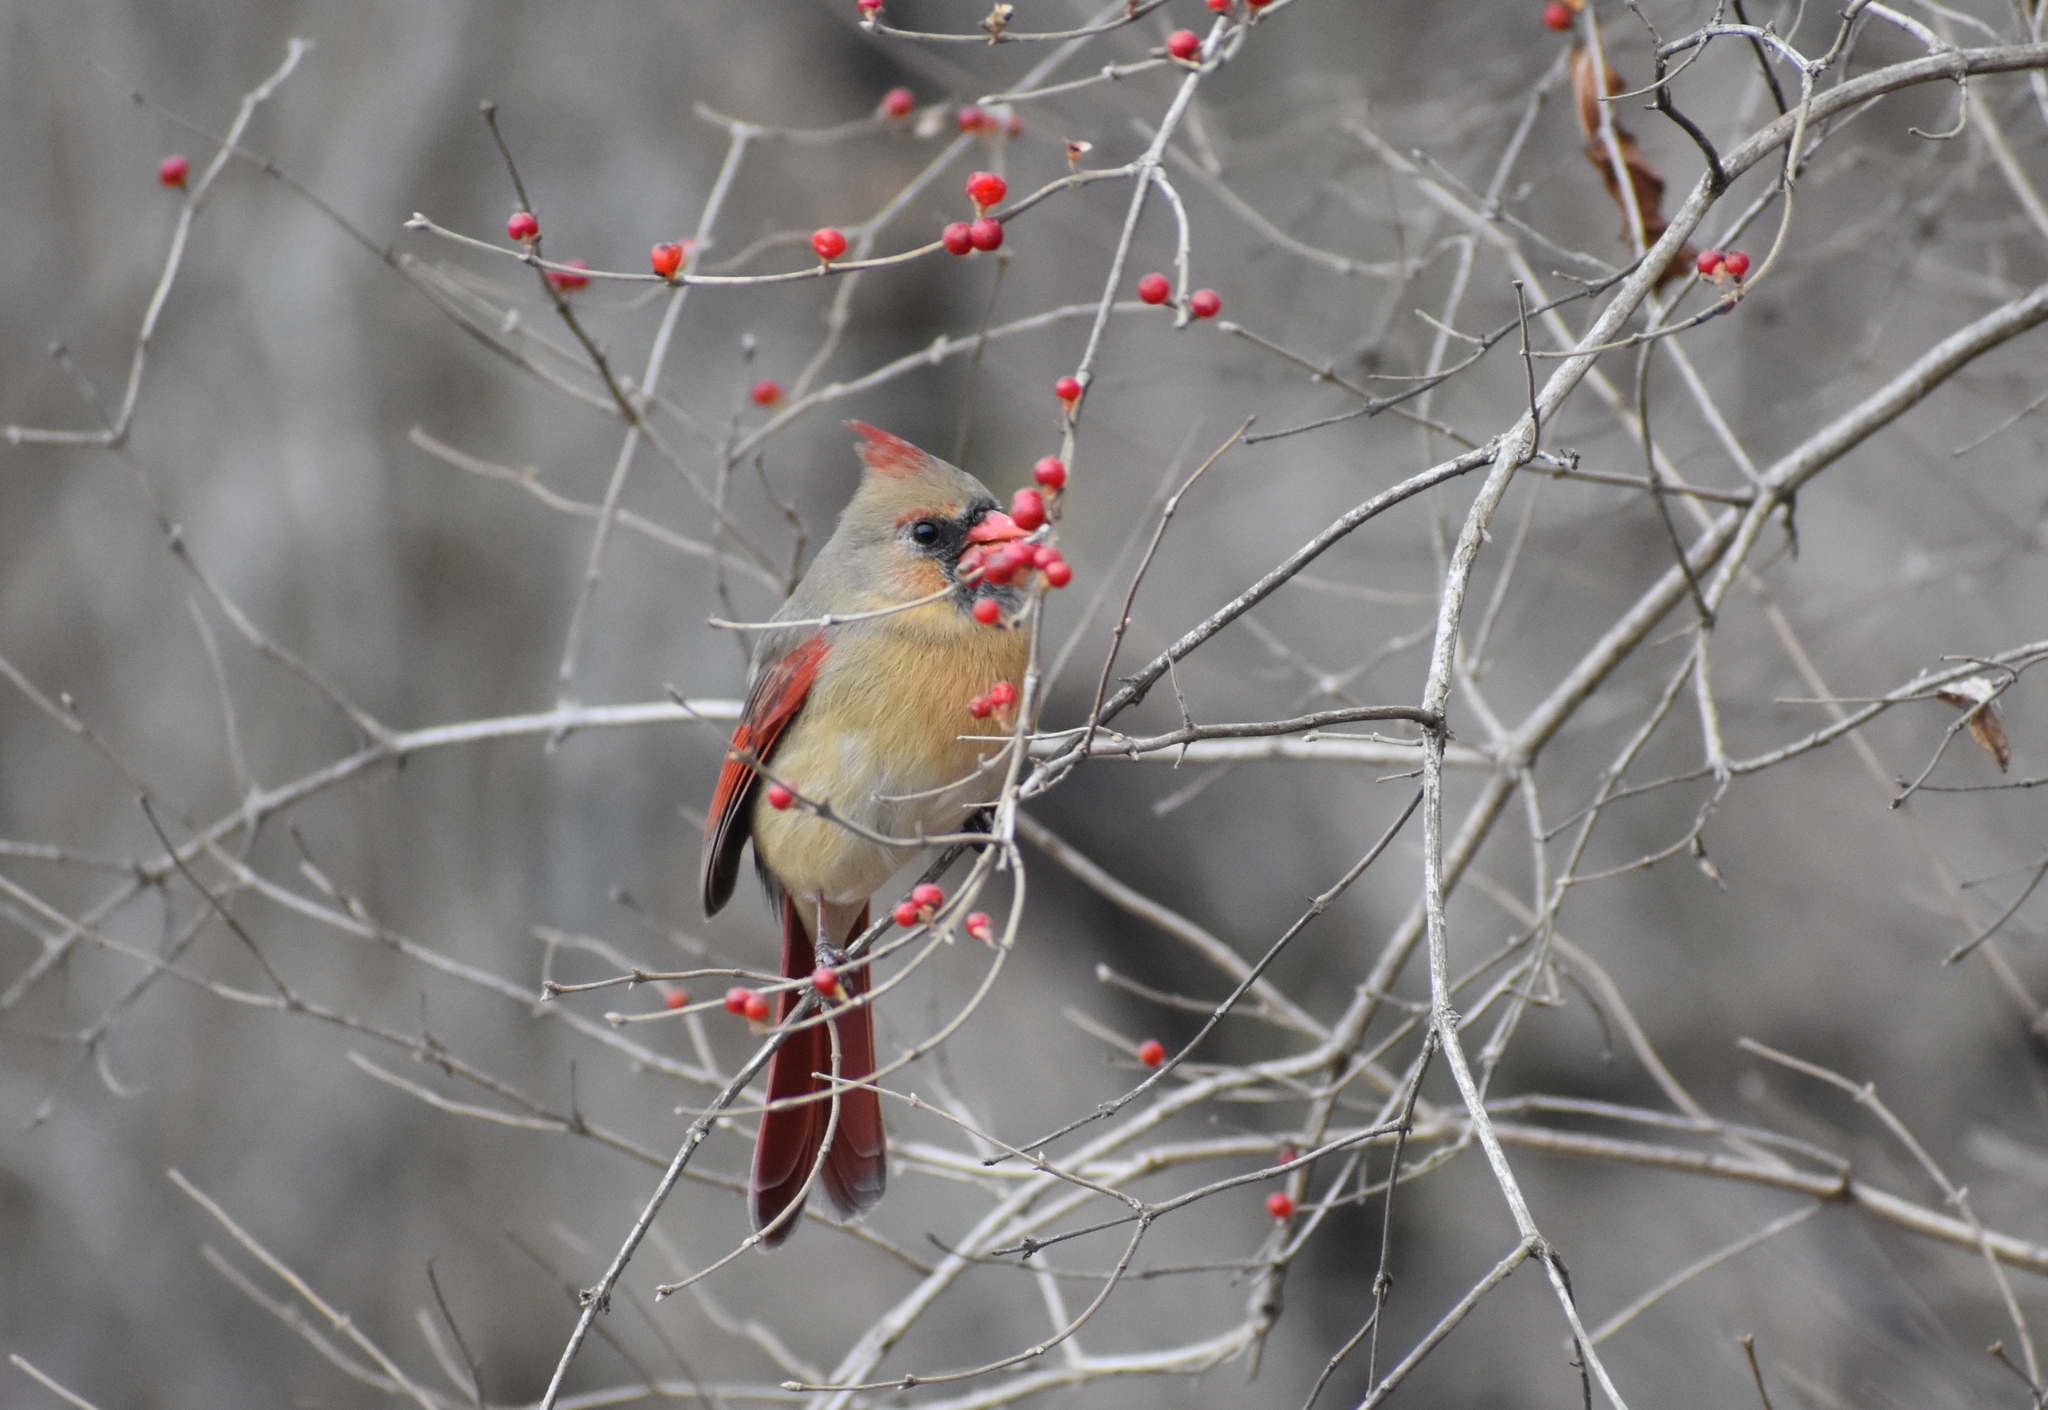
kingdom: Animalia
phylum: Chordata
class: Aves
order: Passeriformes
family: Cardinalidae
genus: Cardinalis
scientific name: Cardinalis cardinalis
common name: Northern cardinal
